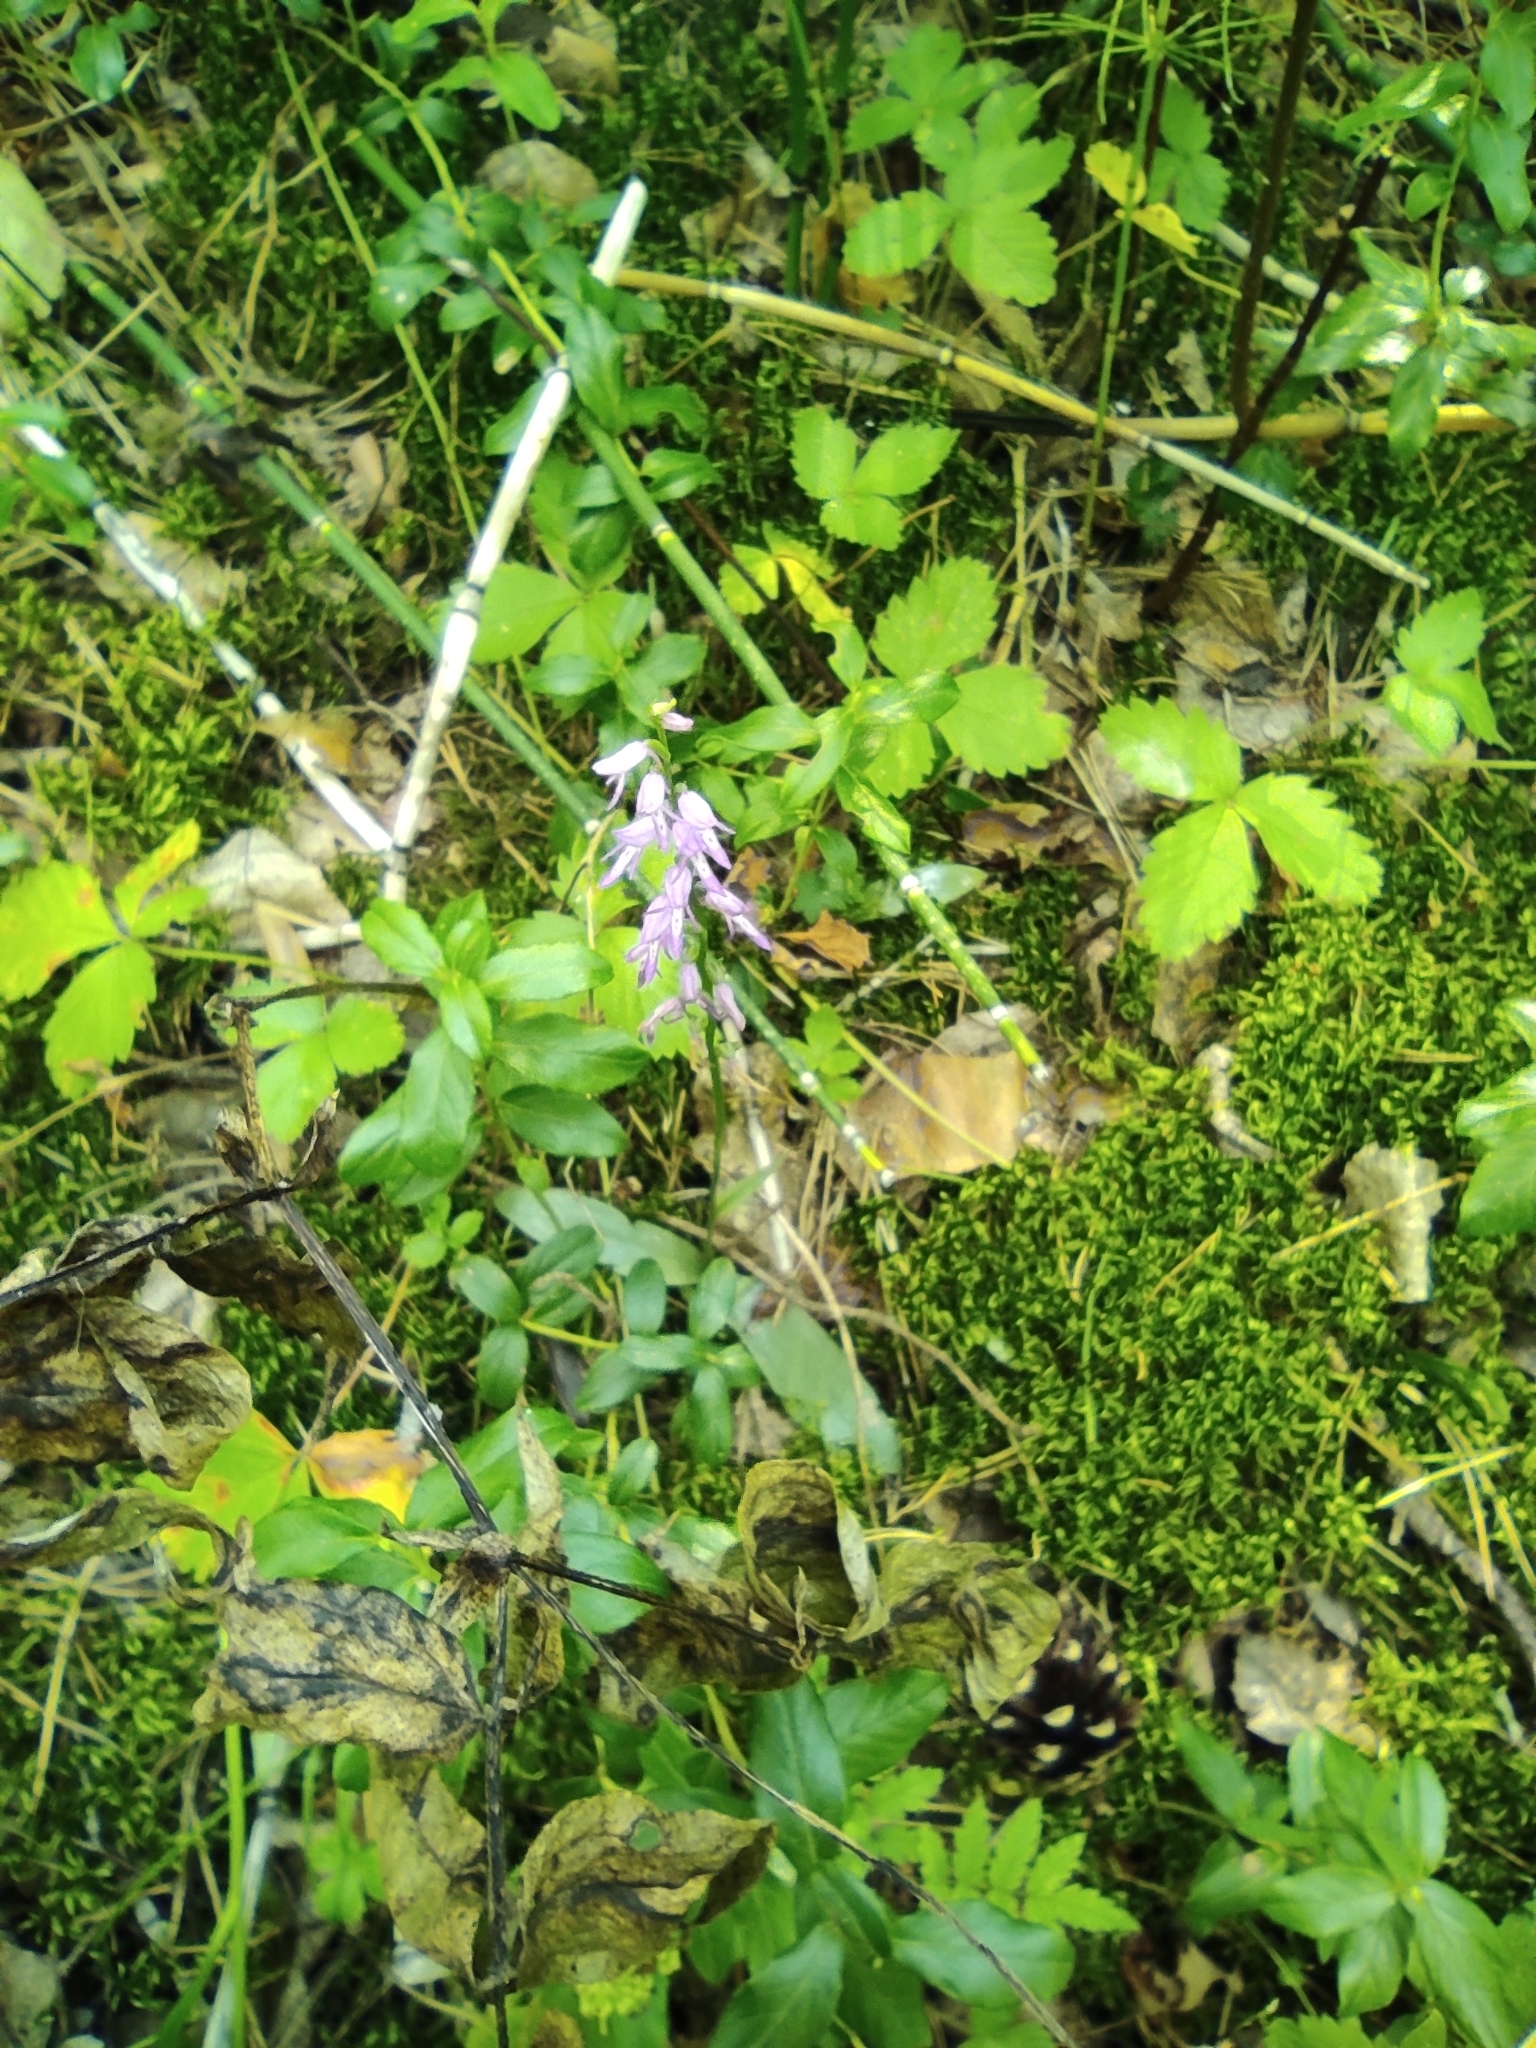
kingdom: Plantae
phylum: Tracheophyta
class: Liliopsida
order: Asparagales
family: Orchidaceae
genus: Hemipilia
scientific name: Hemipilia cucullata
